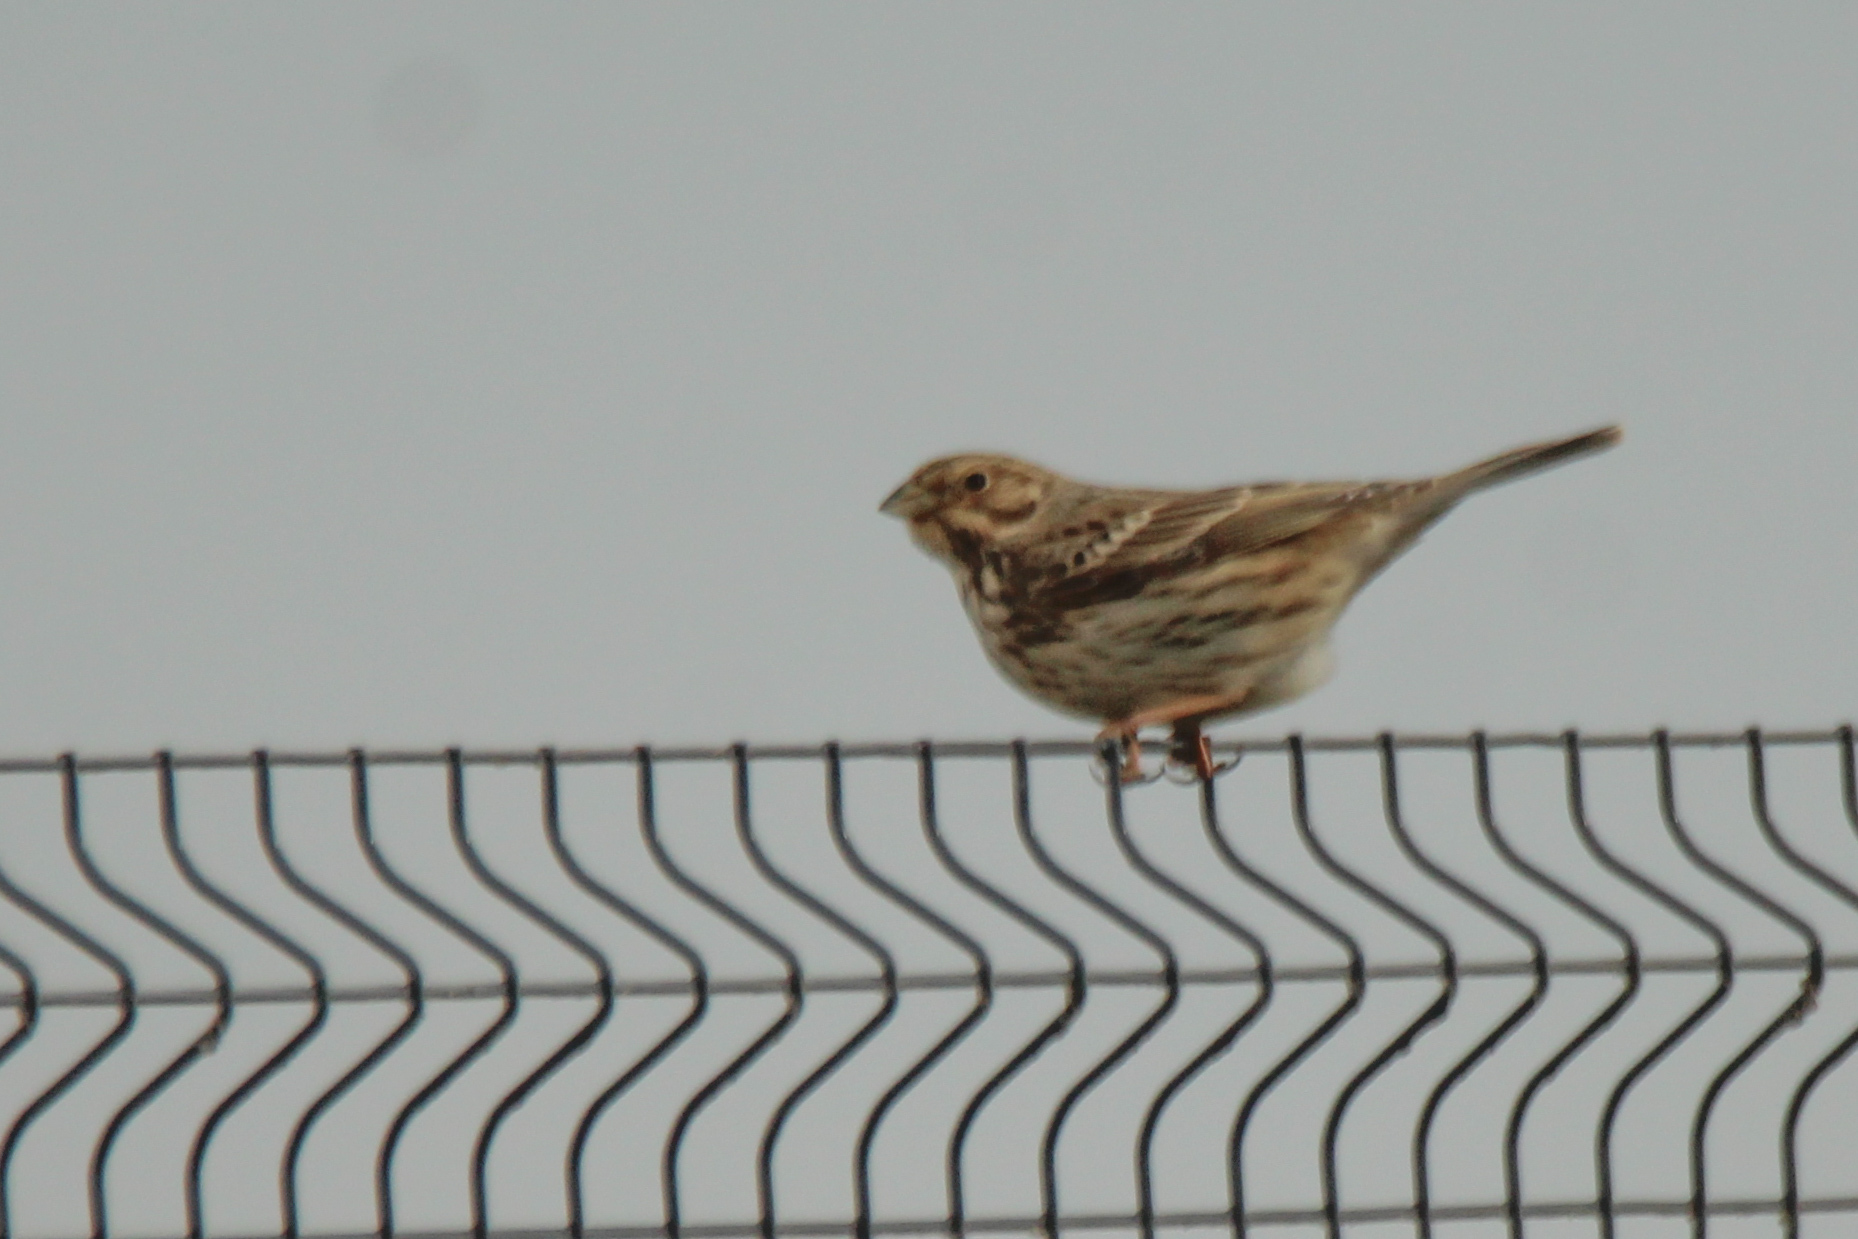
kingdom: Animalia
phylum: Chordata
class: Aves
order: Passeriformes
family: Emberizidae
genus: Emberiza
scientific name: Emberiza calandra
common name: Corn bunting
